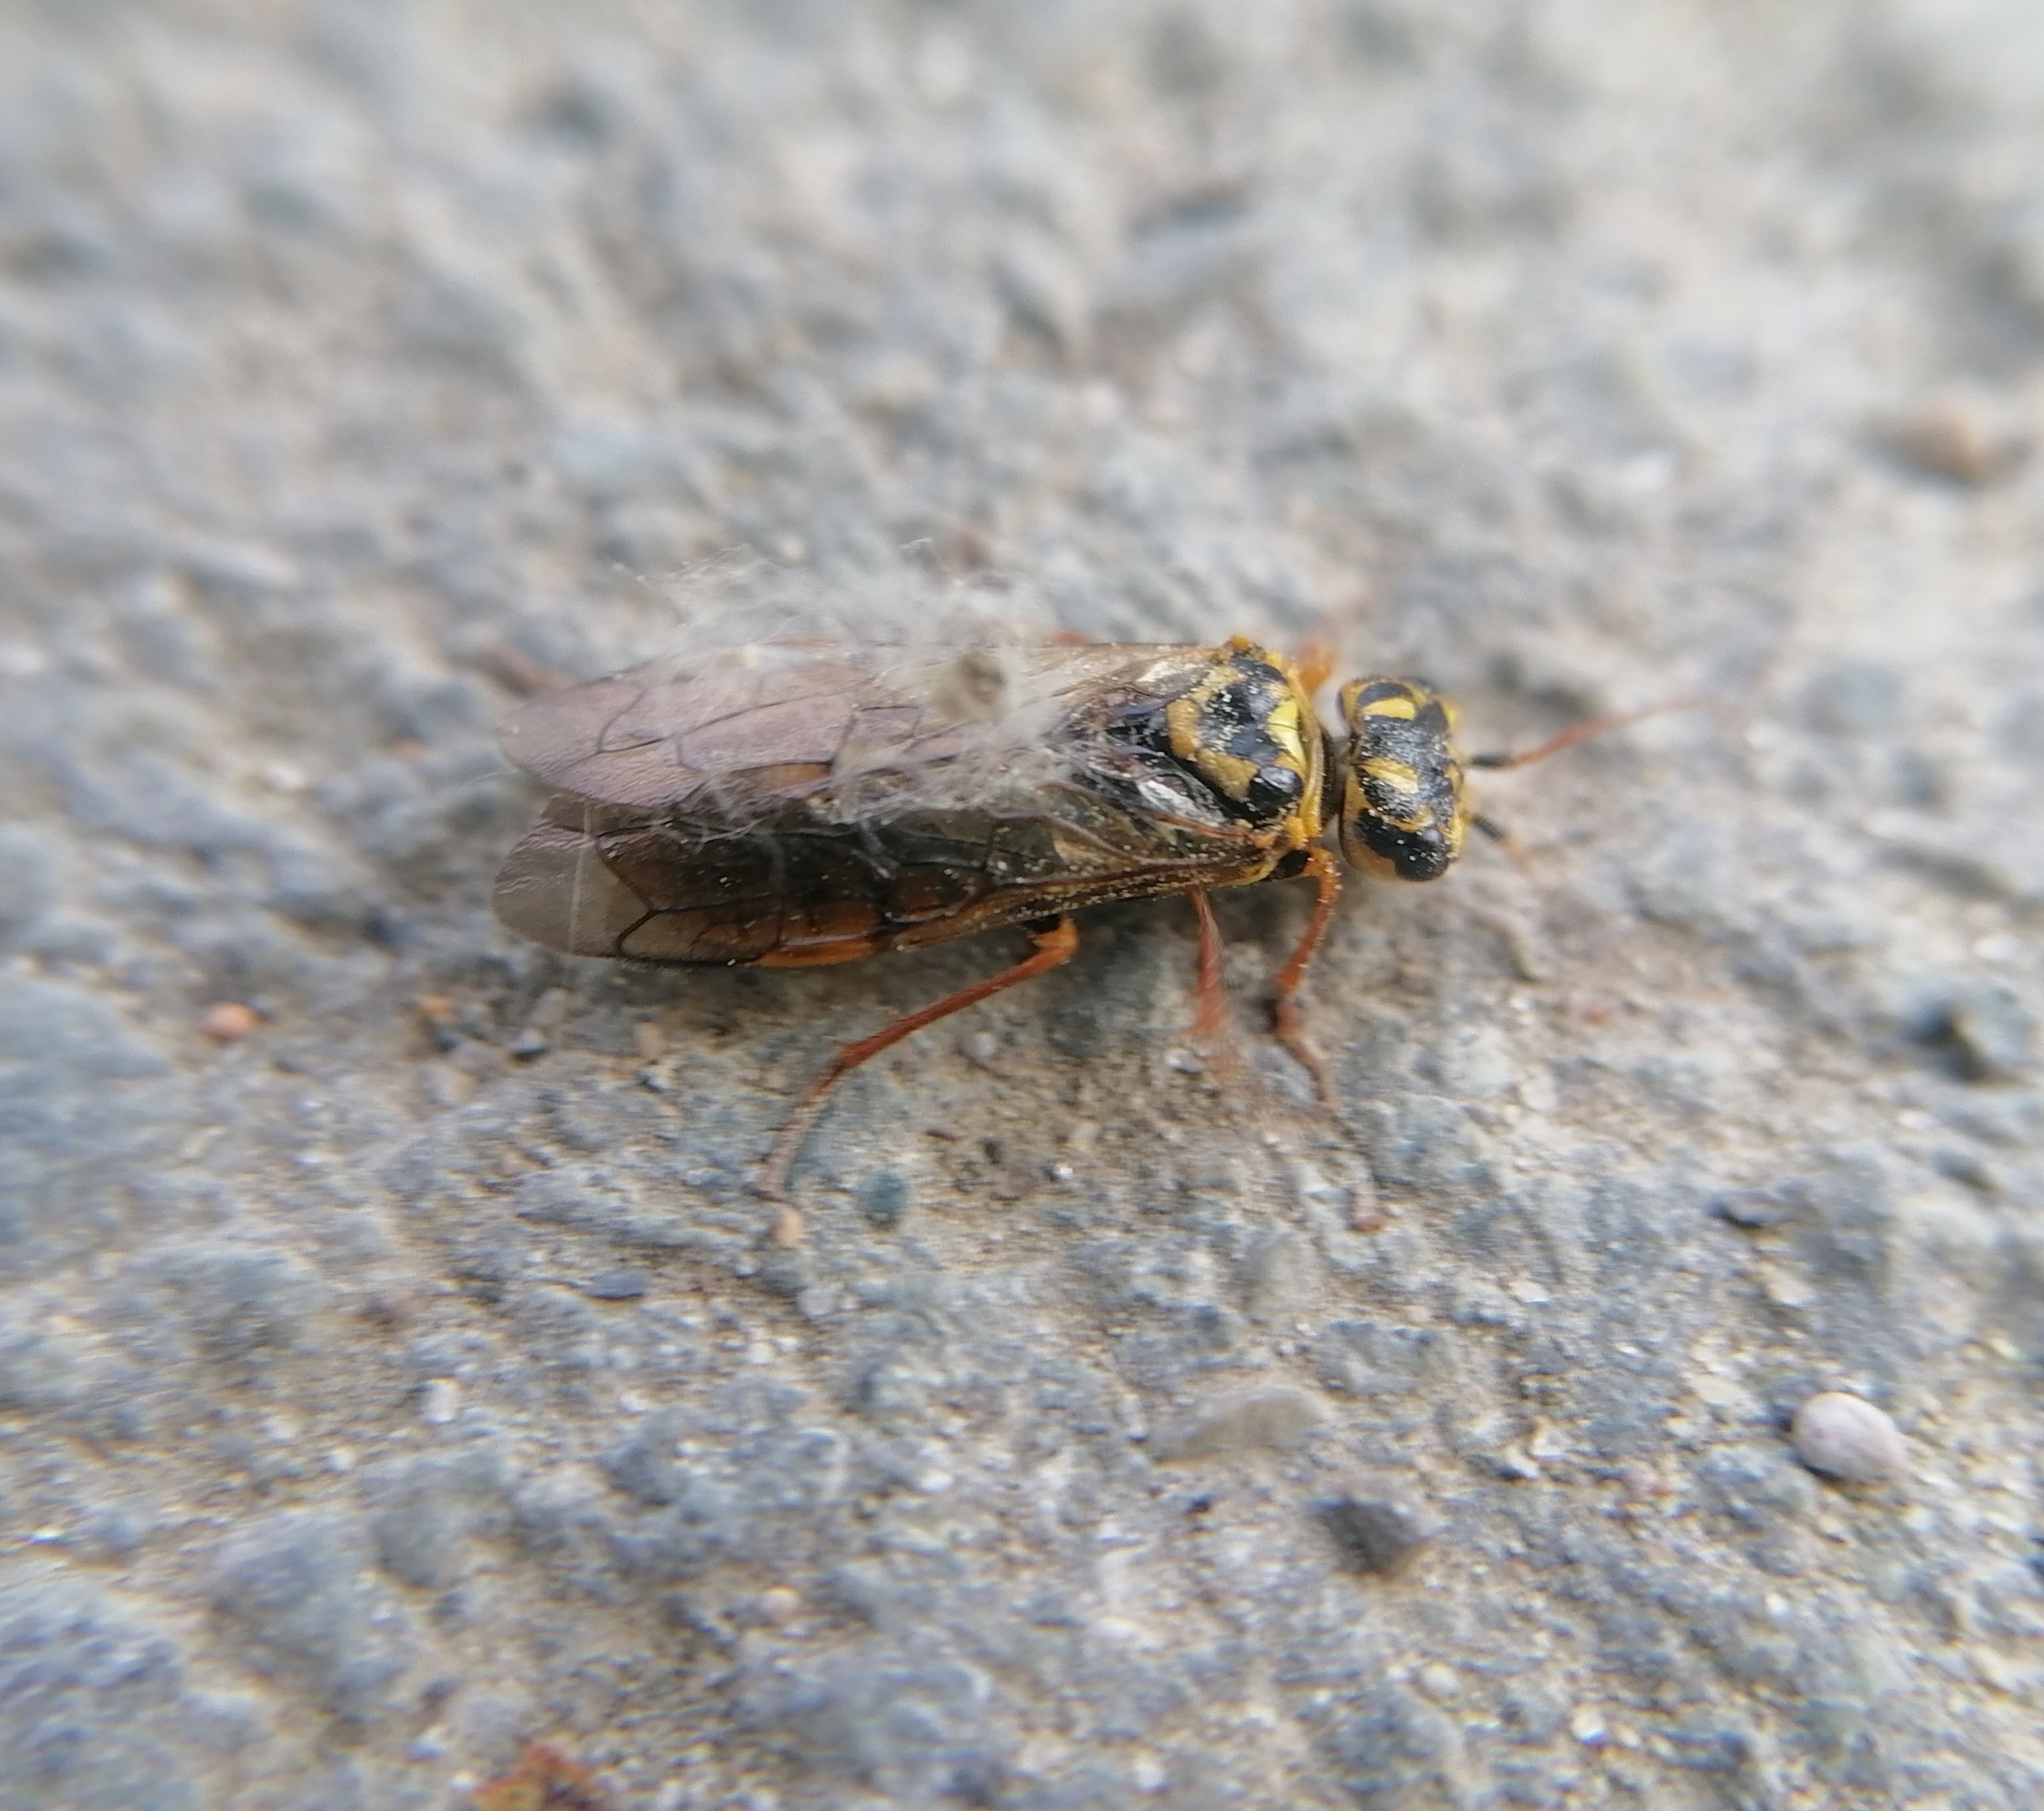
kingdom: Animalia
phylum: Arthropoda
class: Insecta
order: Hymenoptera
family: Pamphiliidae
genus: Acantholyda
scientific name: Acantholyda posticalis
